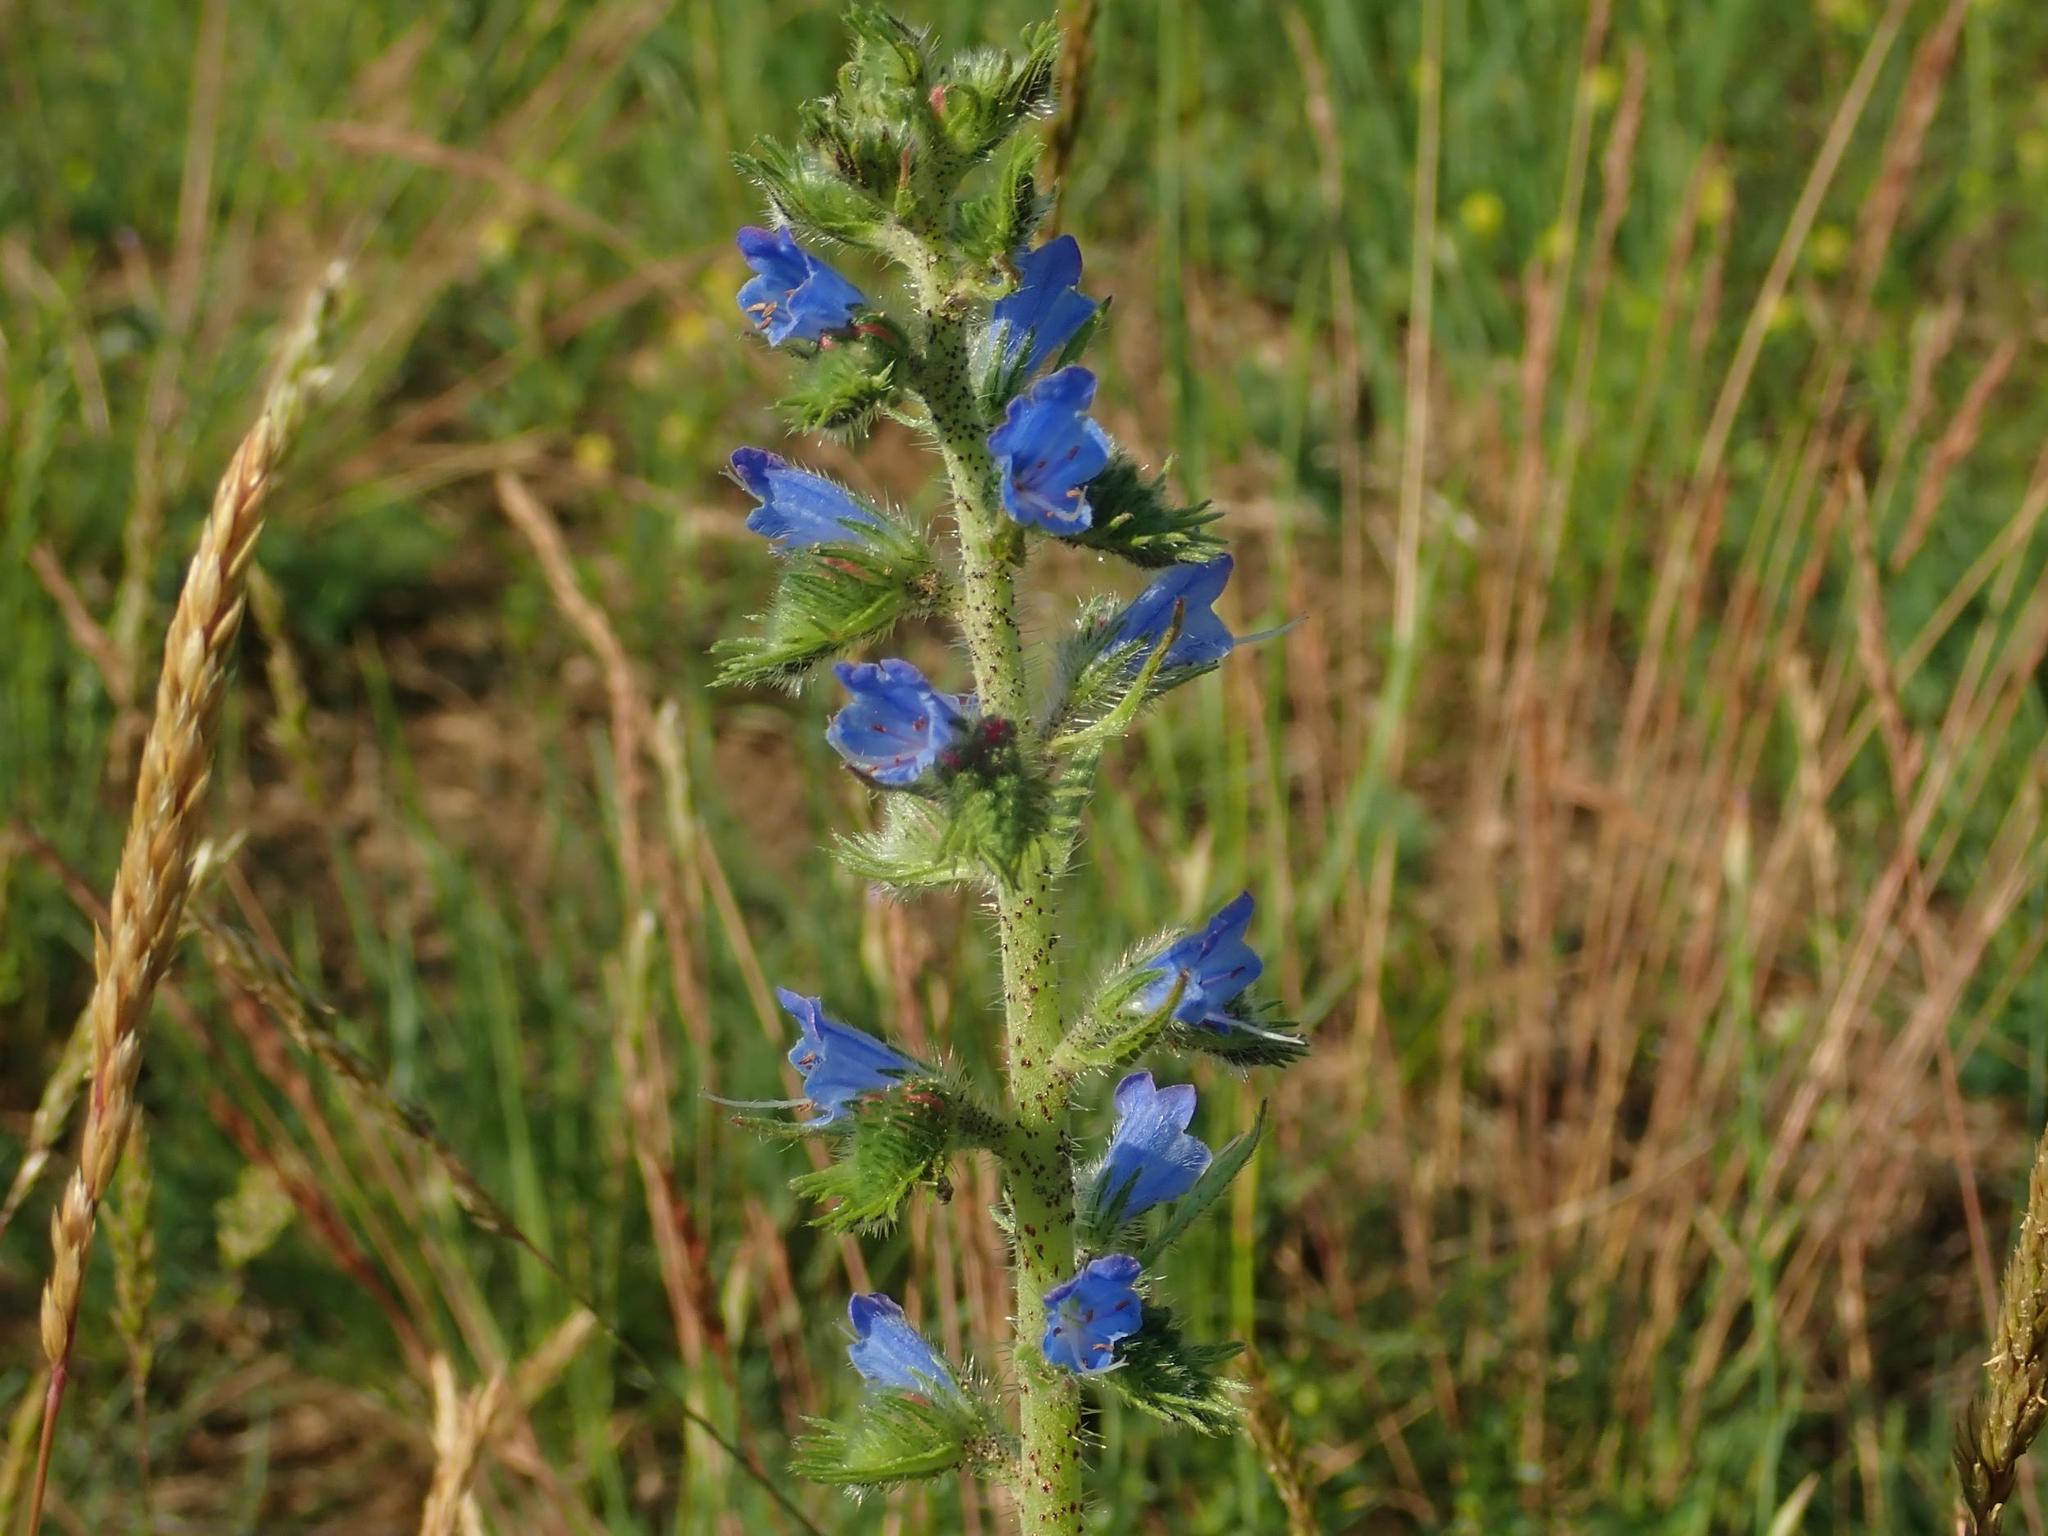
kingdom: Plantae
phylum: Tracheophyta
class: Magnoliopsida
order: Boraginales
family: Boraginaceae
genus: Echium
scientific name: Echium vulgare
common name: Common viper's bugloss
